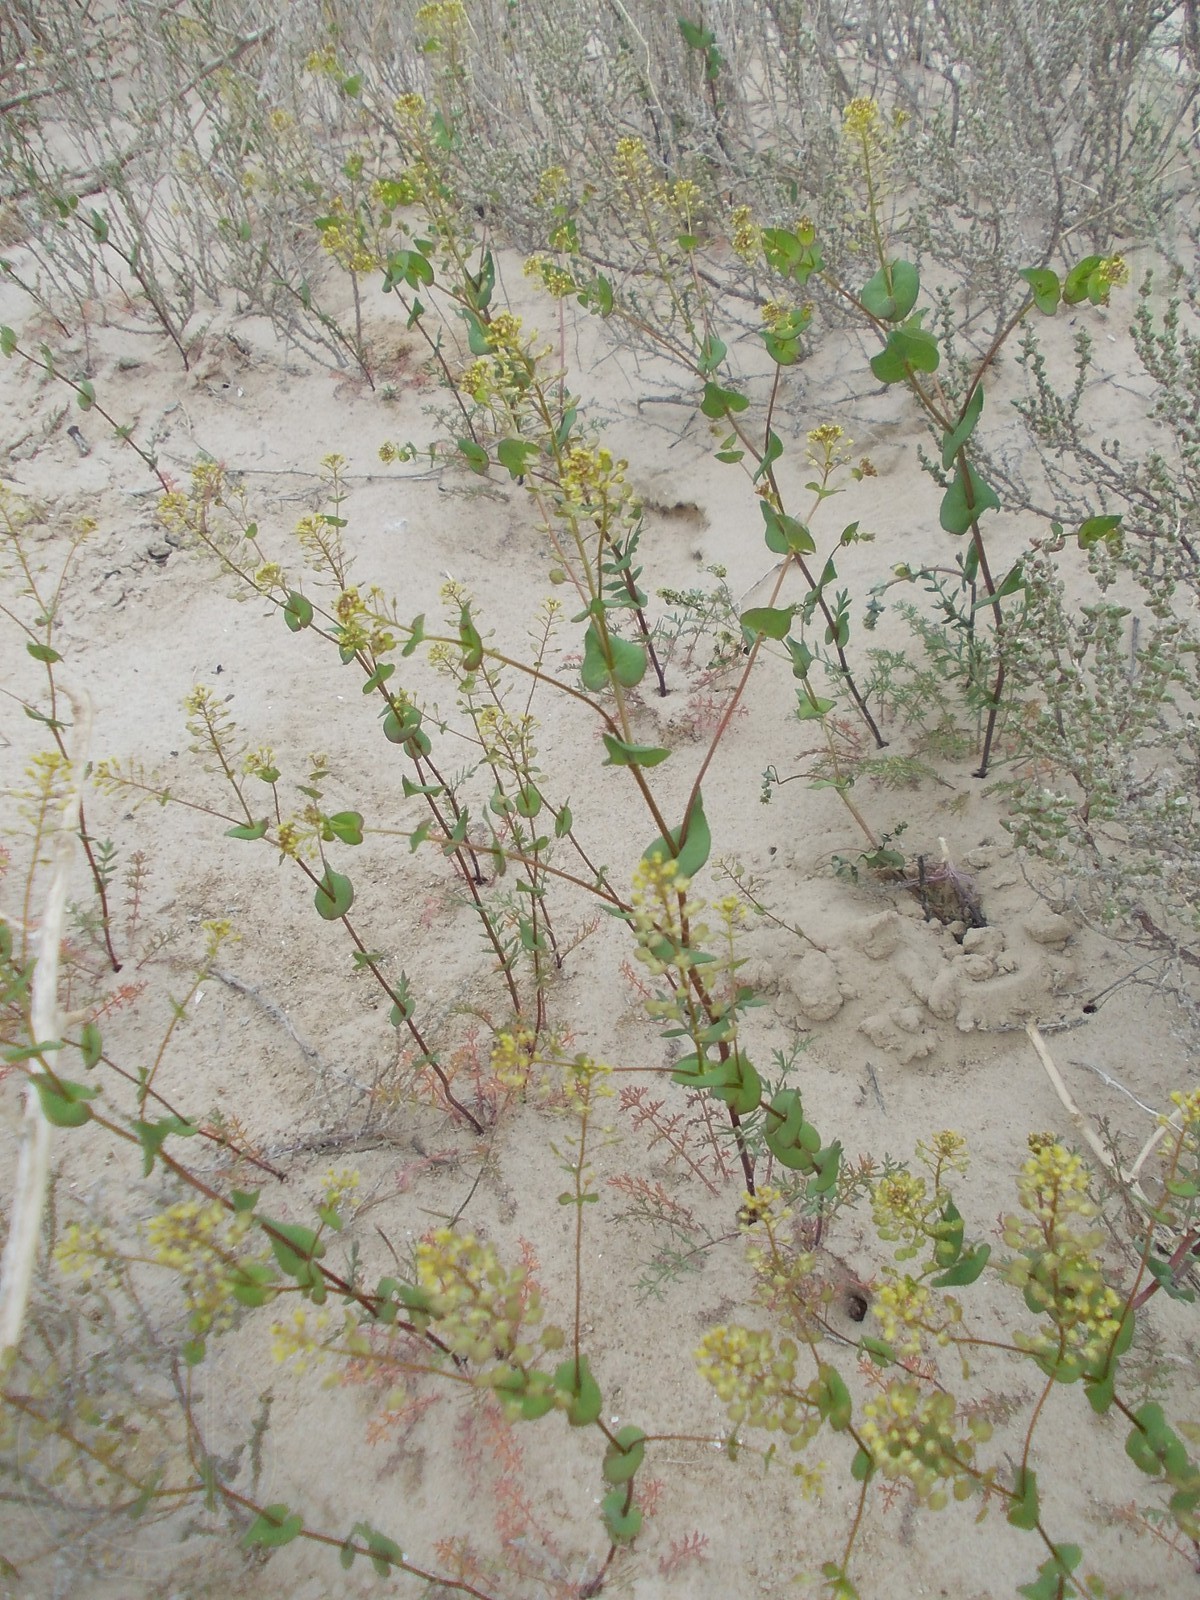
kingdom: Plantae
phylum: Tracheophyta
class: Magnoliopsida
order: Brassicales
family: Brassicaceae
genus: Lepidium
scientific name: Lepidium perfoliatum
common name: Perfoliate pepperwort
